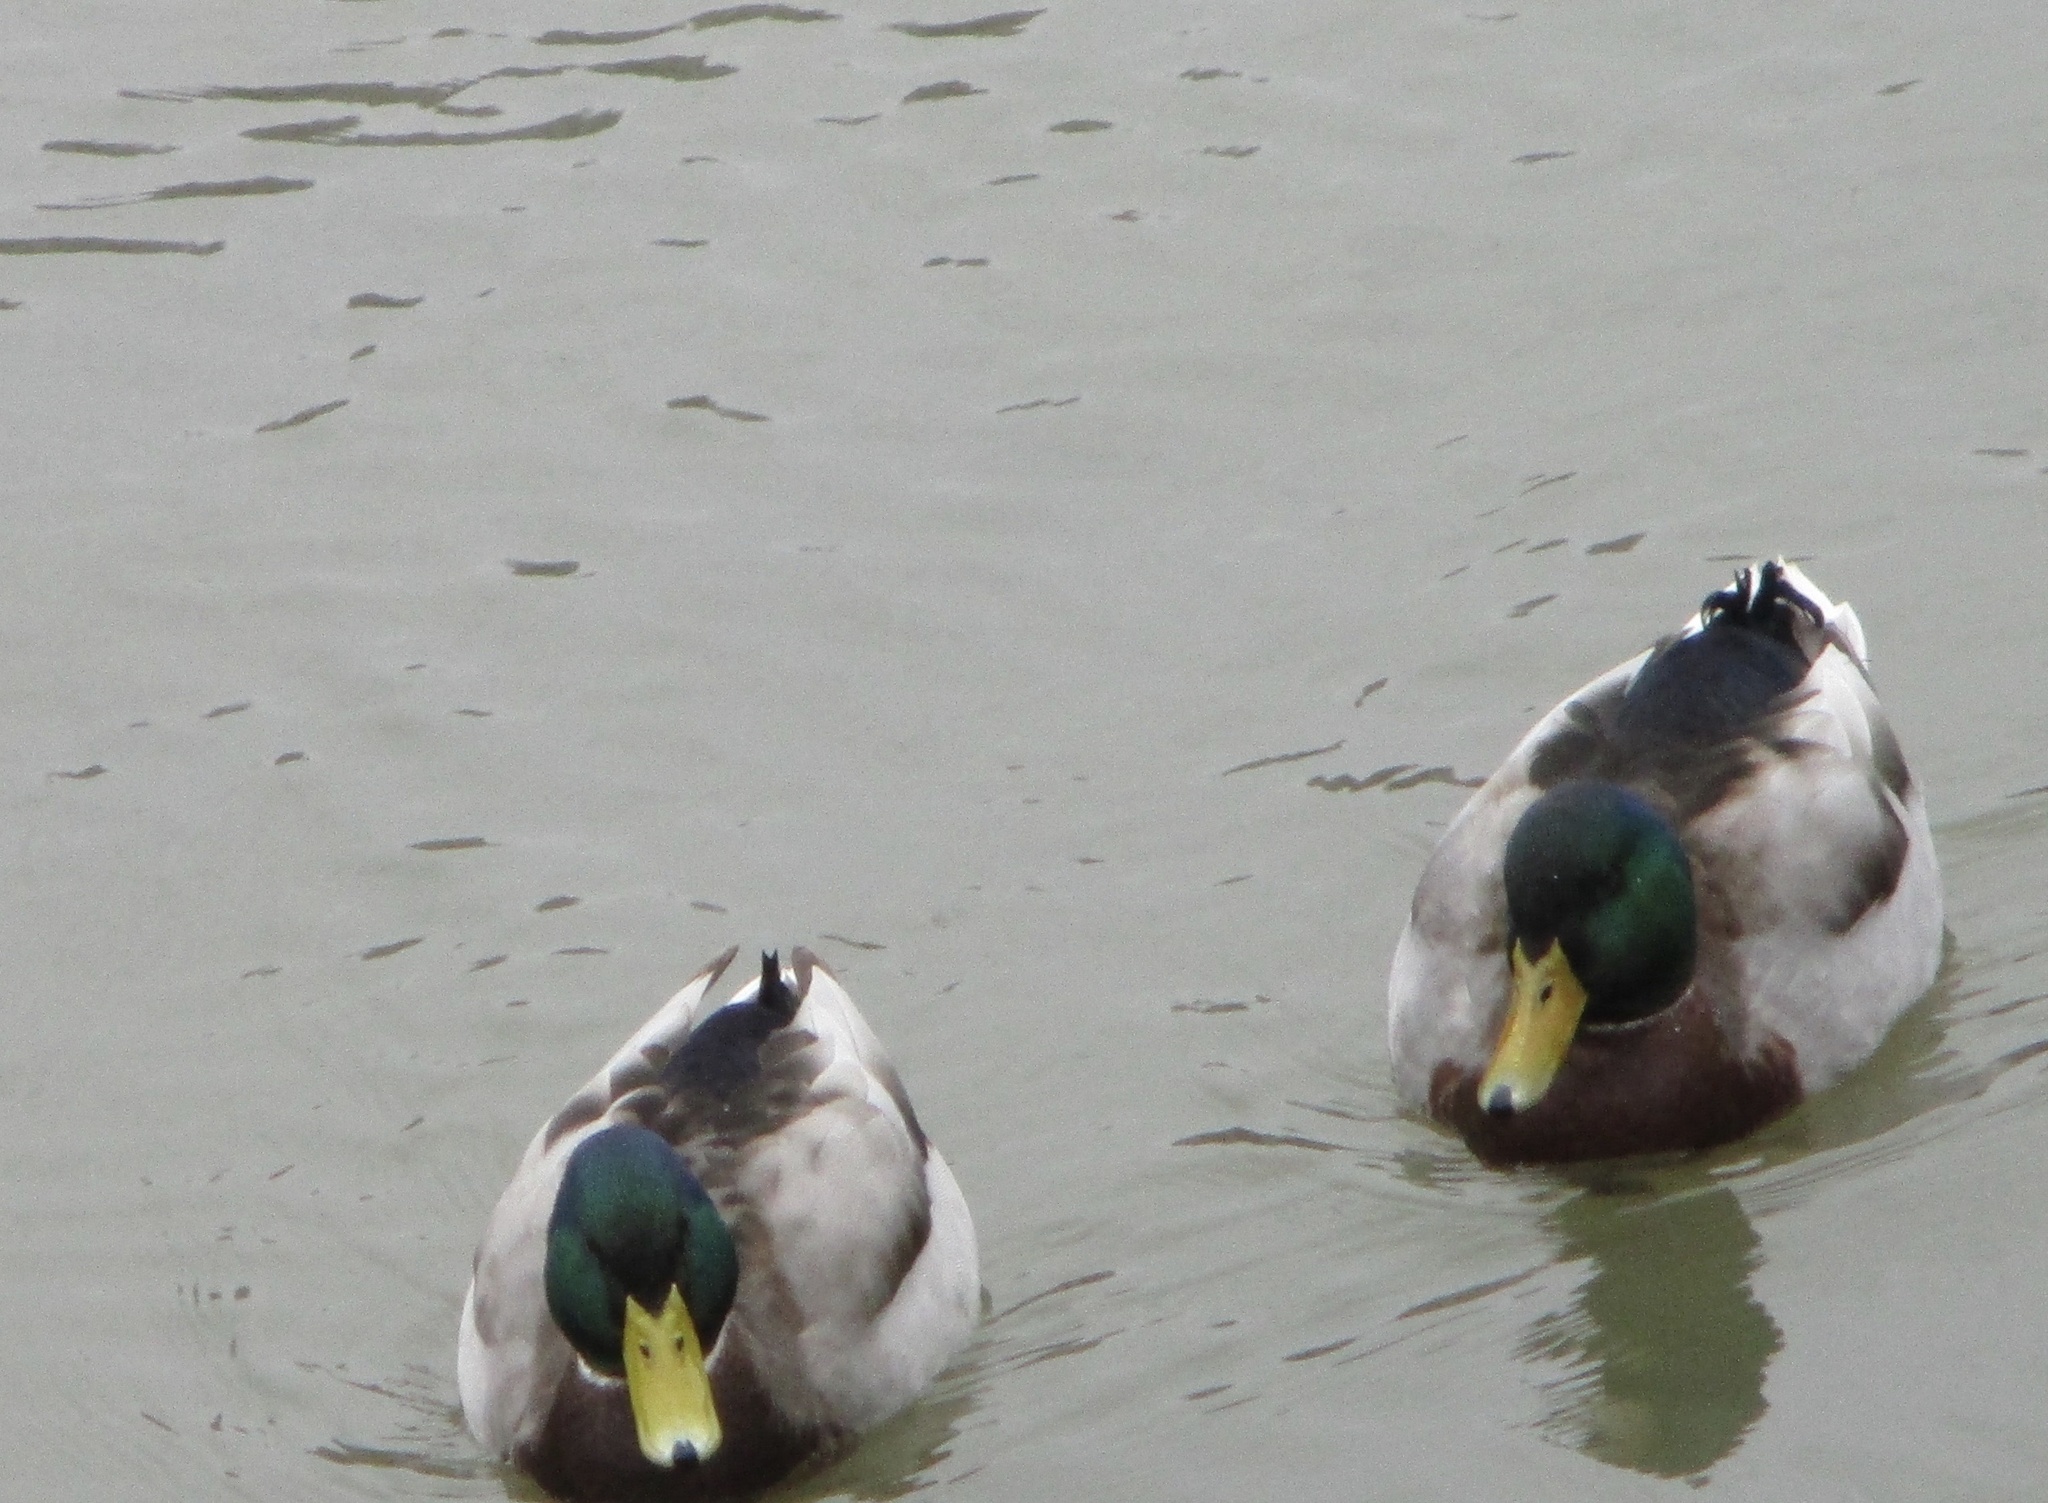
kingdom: Animalia
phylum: Chordata
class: Aves
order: Anseriformes
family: Anatidae
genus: Anas
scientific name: Anas platyrhynchos
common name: Mallard
